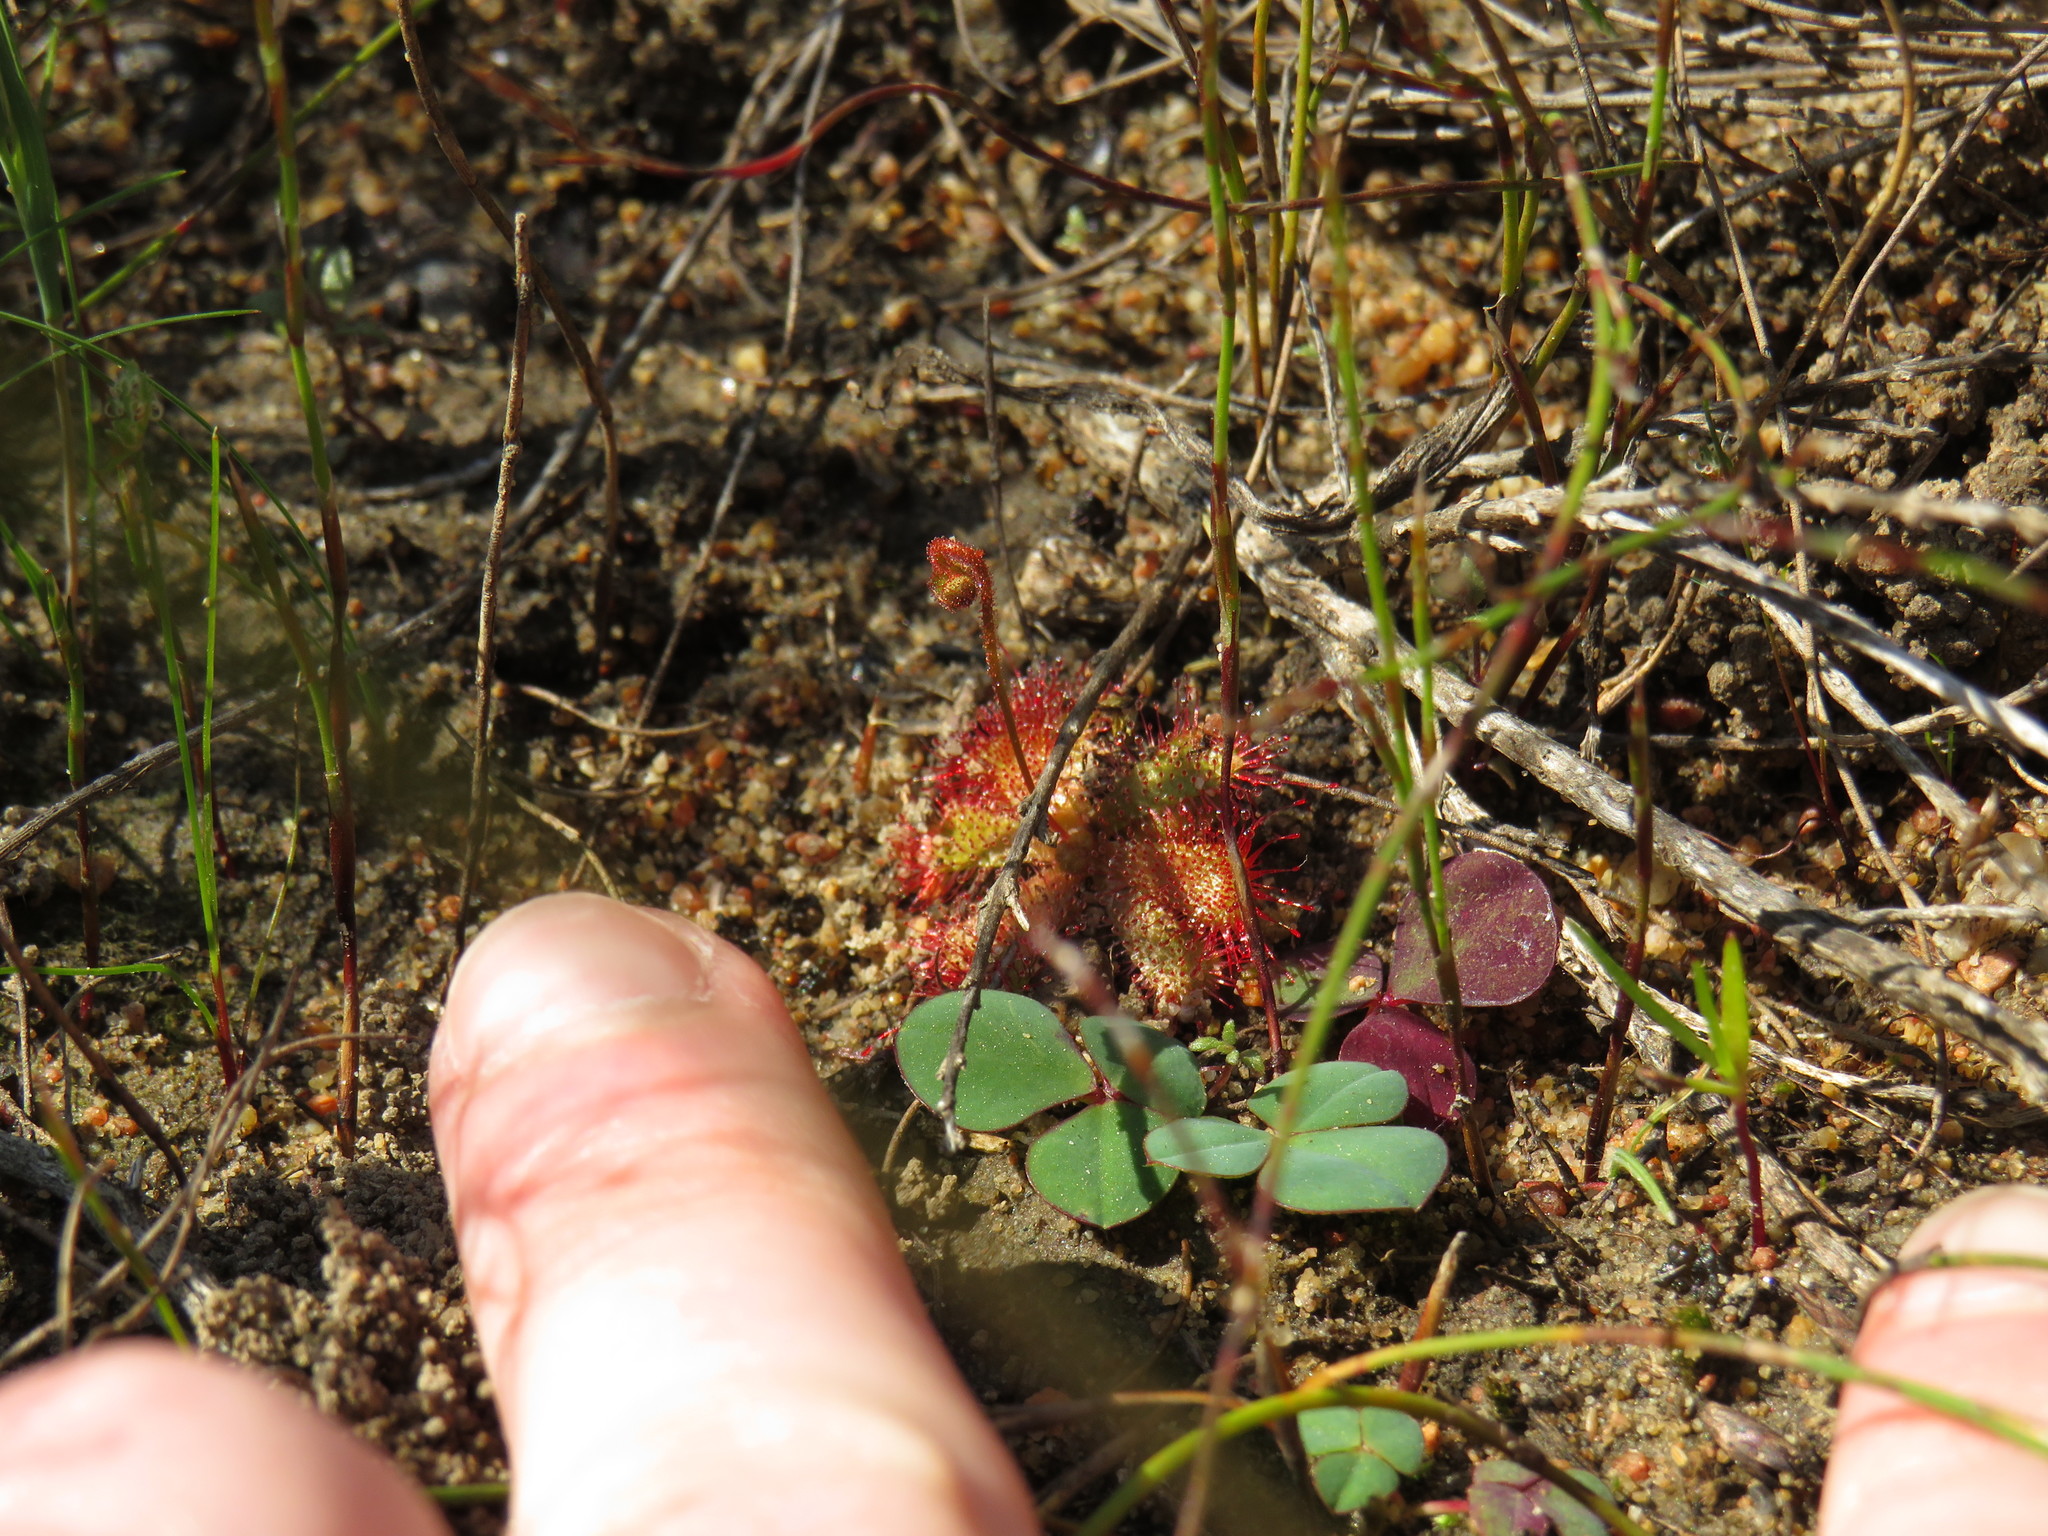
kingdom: Plantae
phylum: Tracheophyta
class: Magnoliopsida
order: Caryophyllales
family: Droseraceae
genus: Drosera
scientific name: Drosera trinervia
